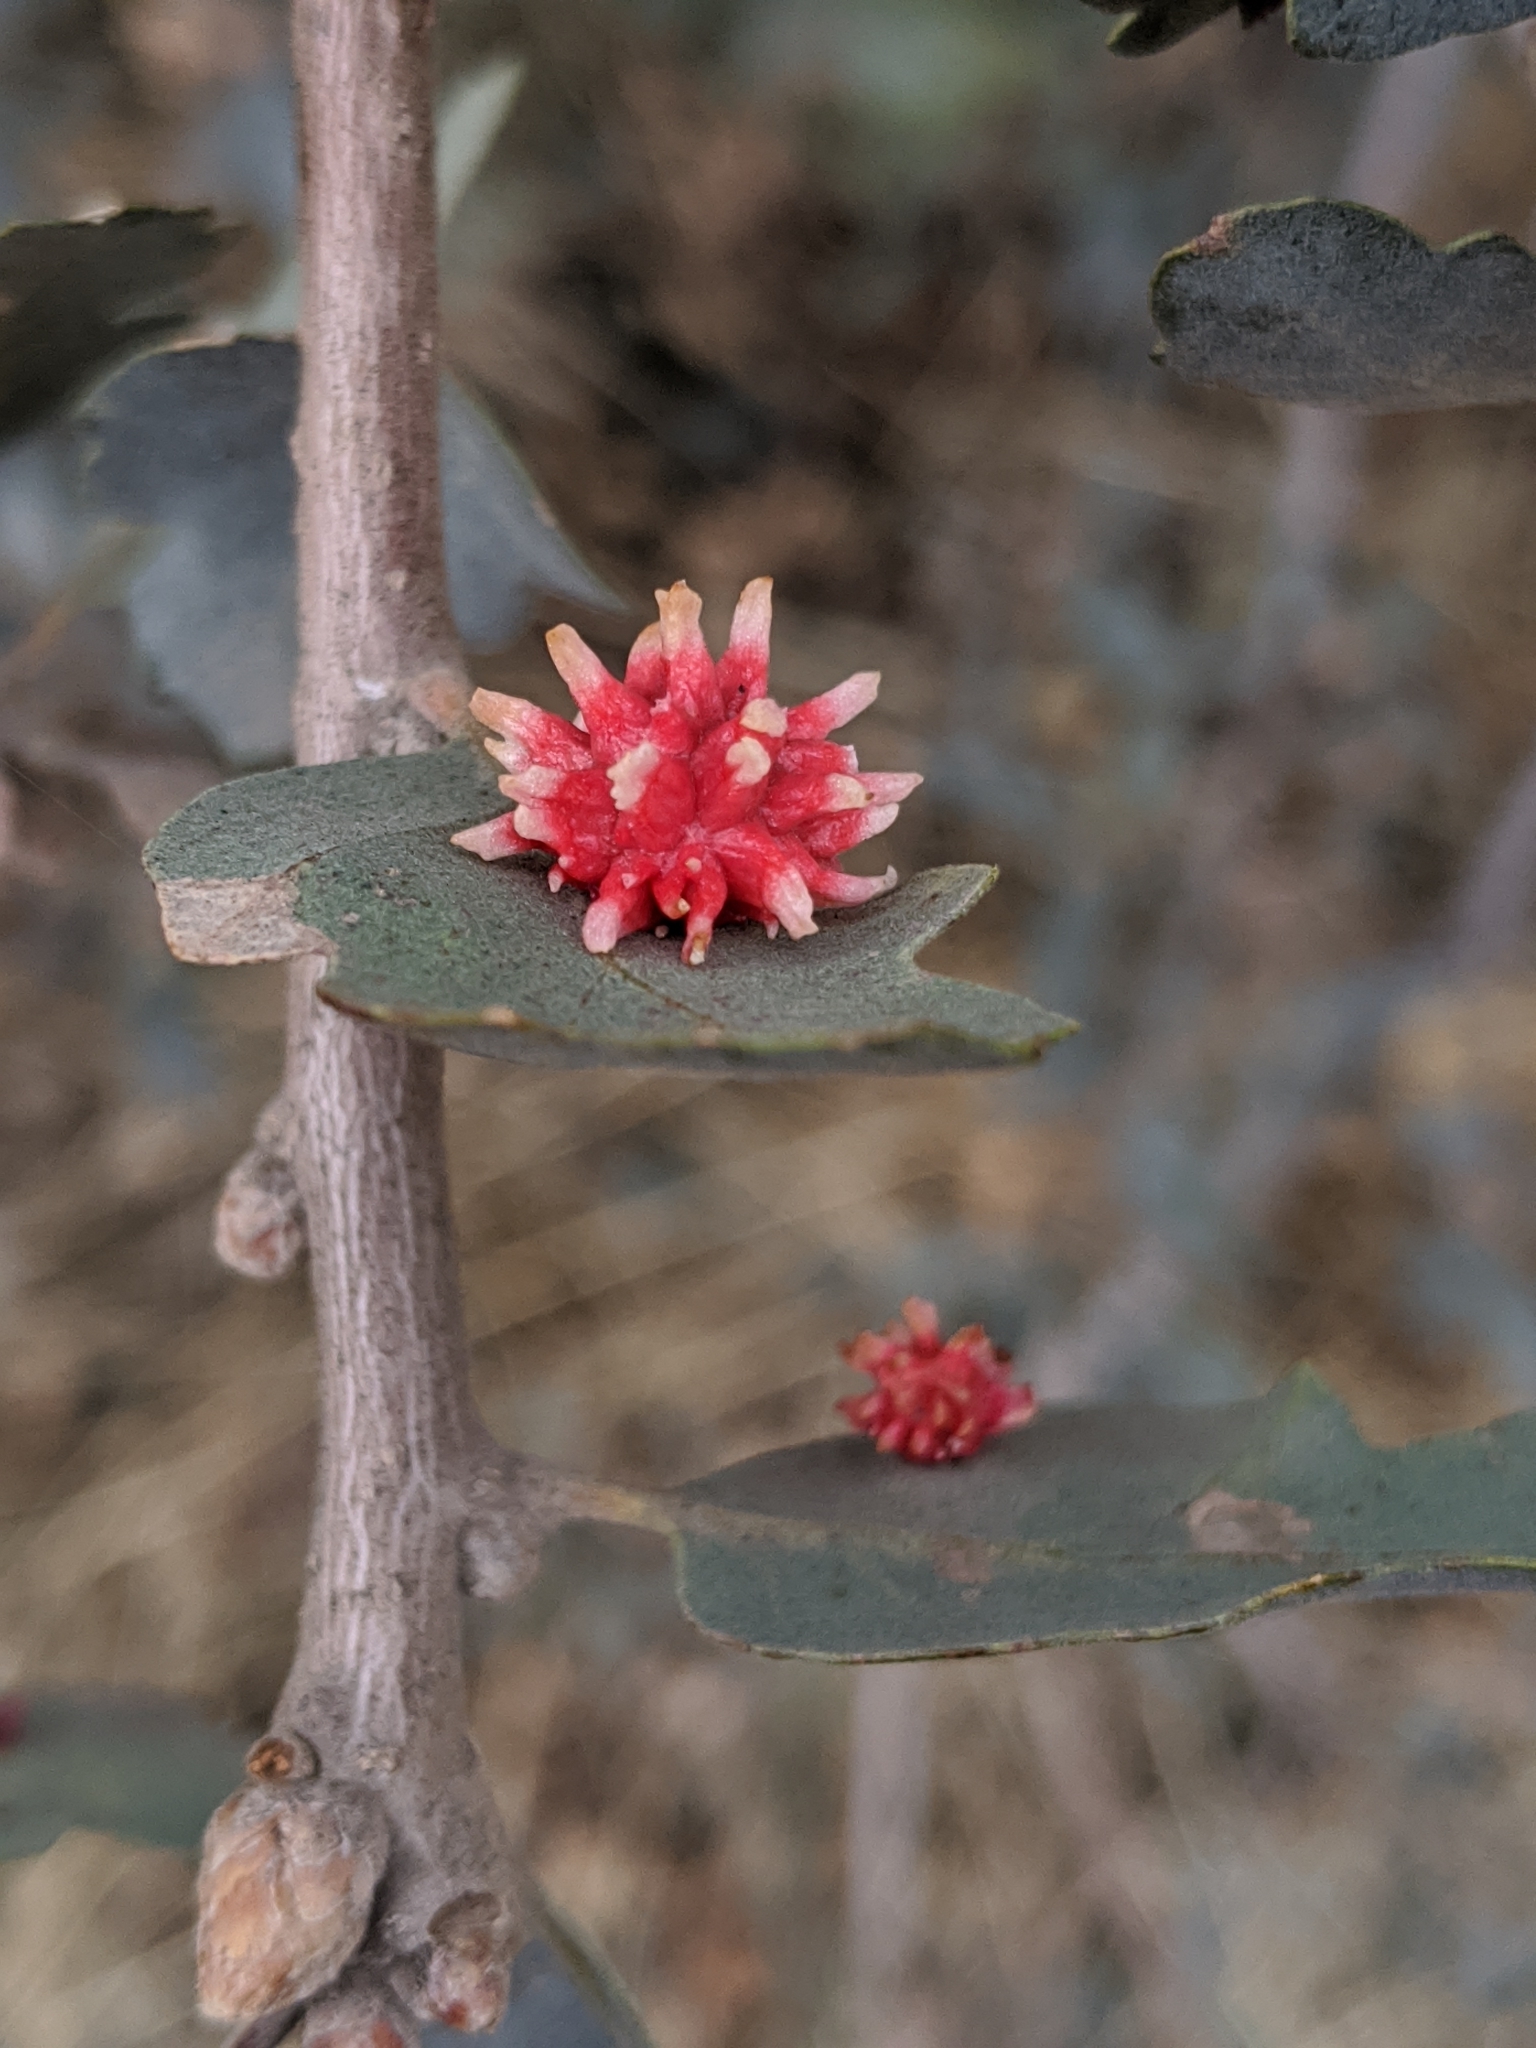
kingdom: Animalia
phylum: Arthropoda
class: Insecta
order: Hymenoptera
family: Cynipidae
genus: Cynips
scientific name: Cynips
